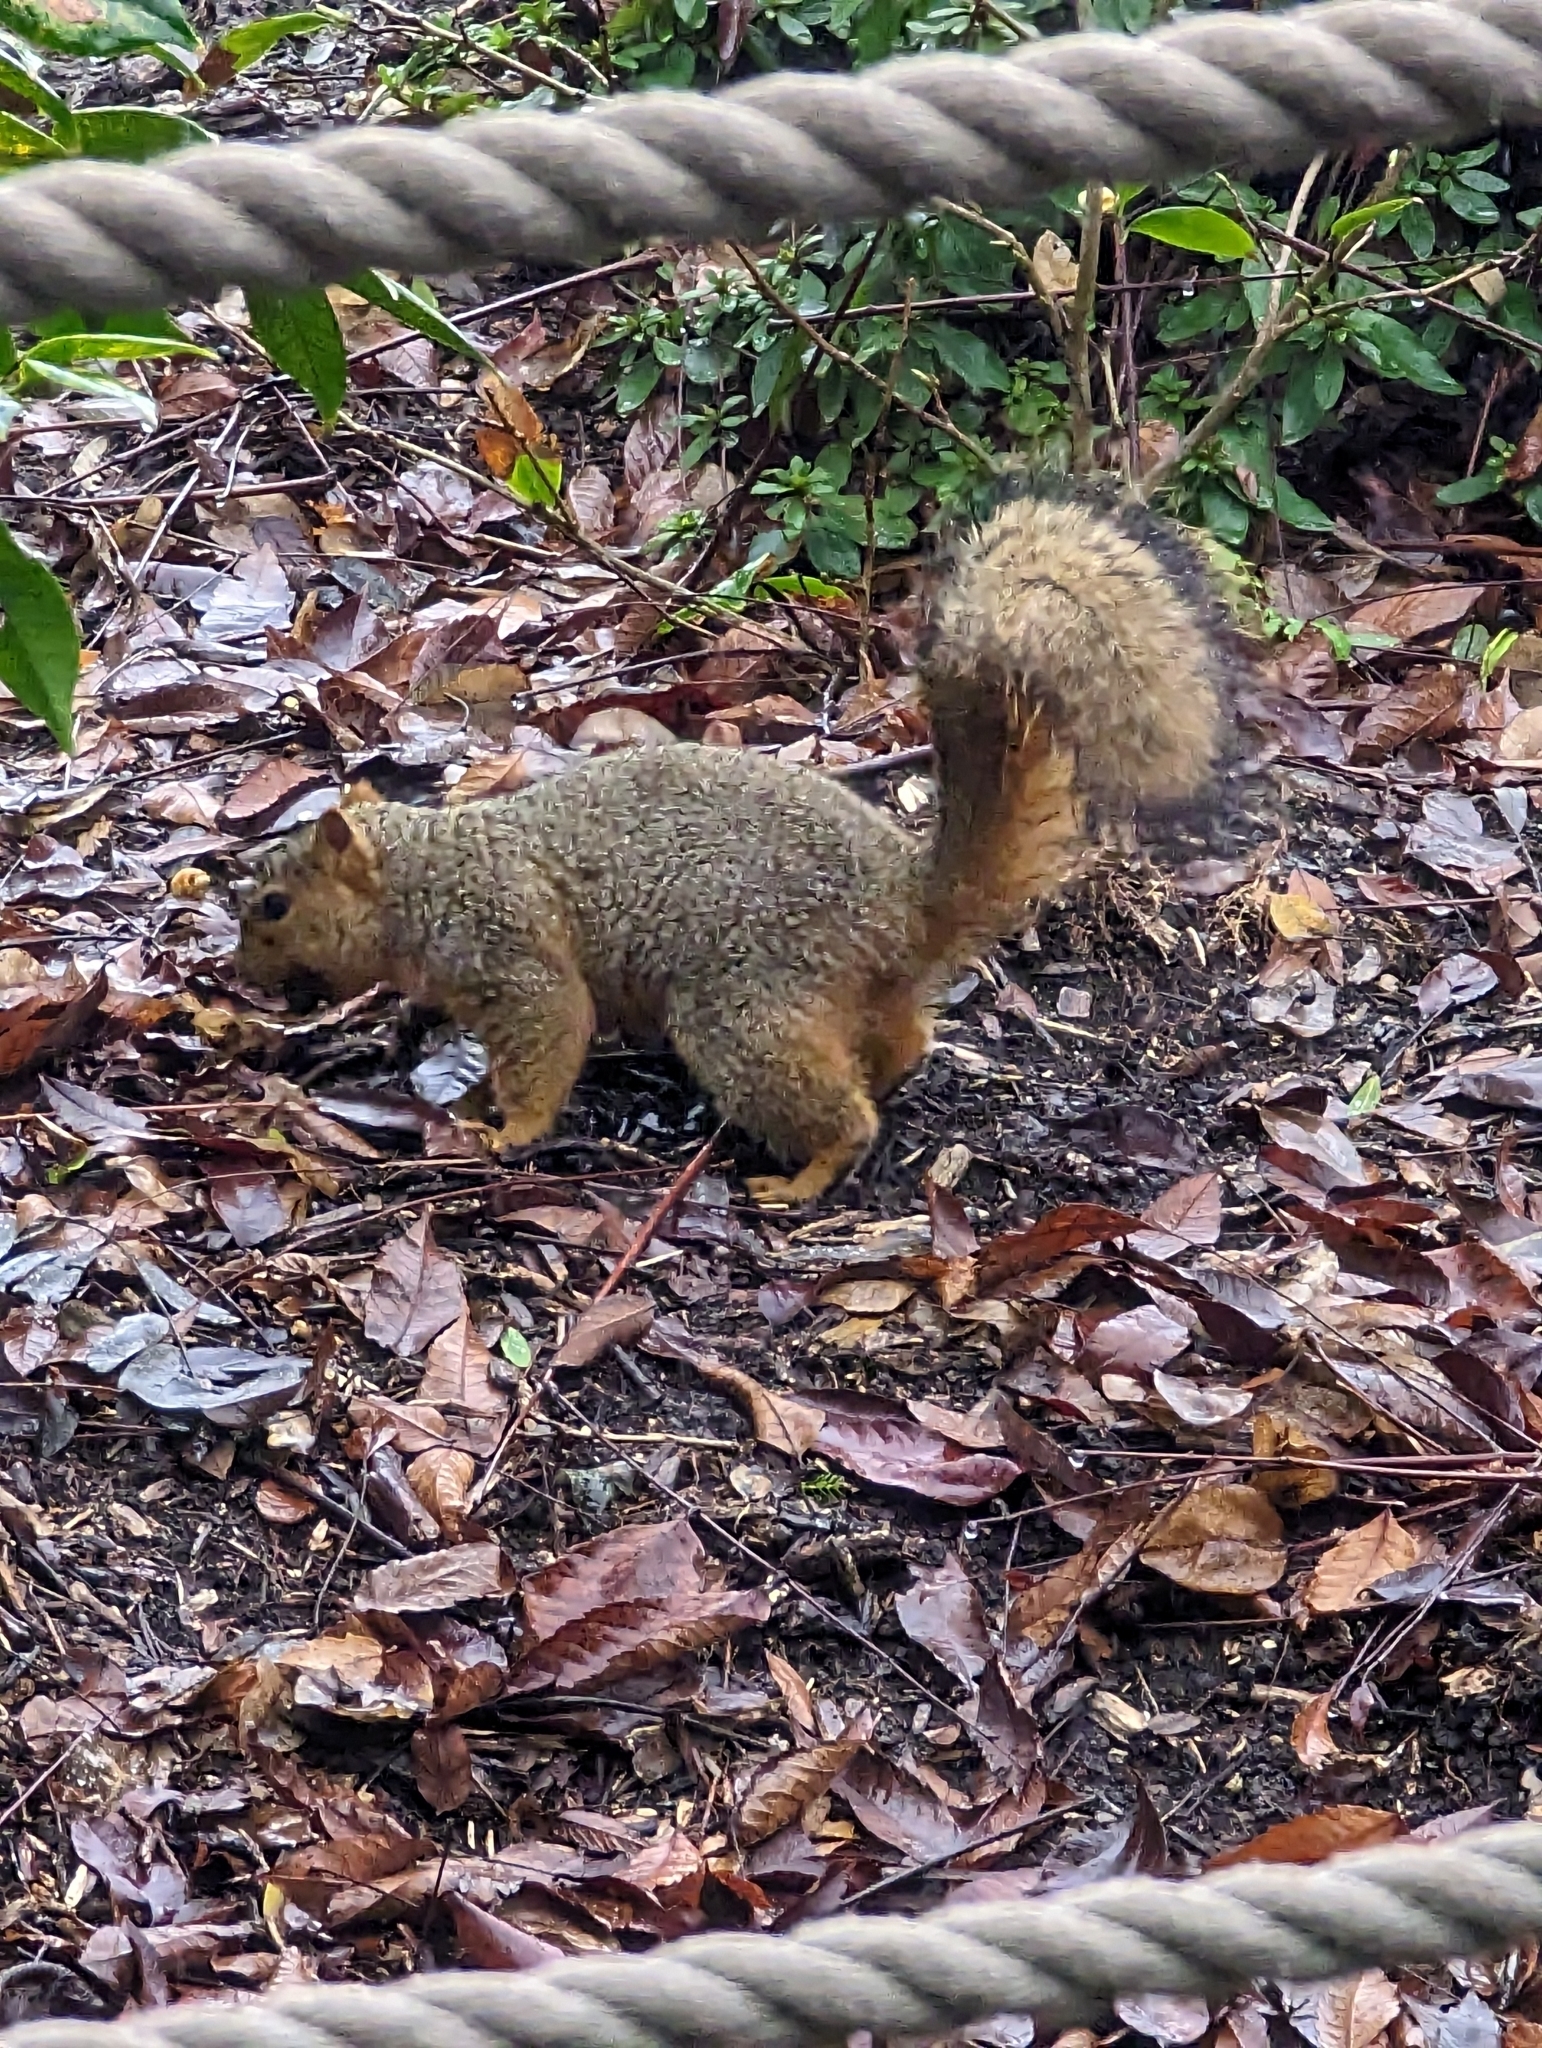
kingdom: Animalia
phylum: Chordata
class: Mammalia
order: Rodentia
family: Sciuridae
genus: Sciurus
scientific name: Sciurus niger
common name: Fox squirrel
